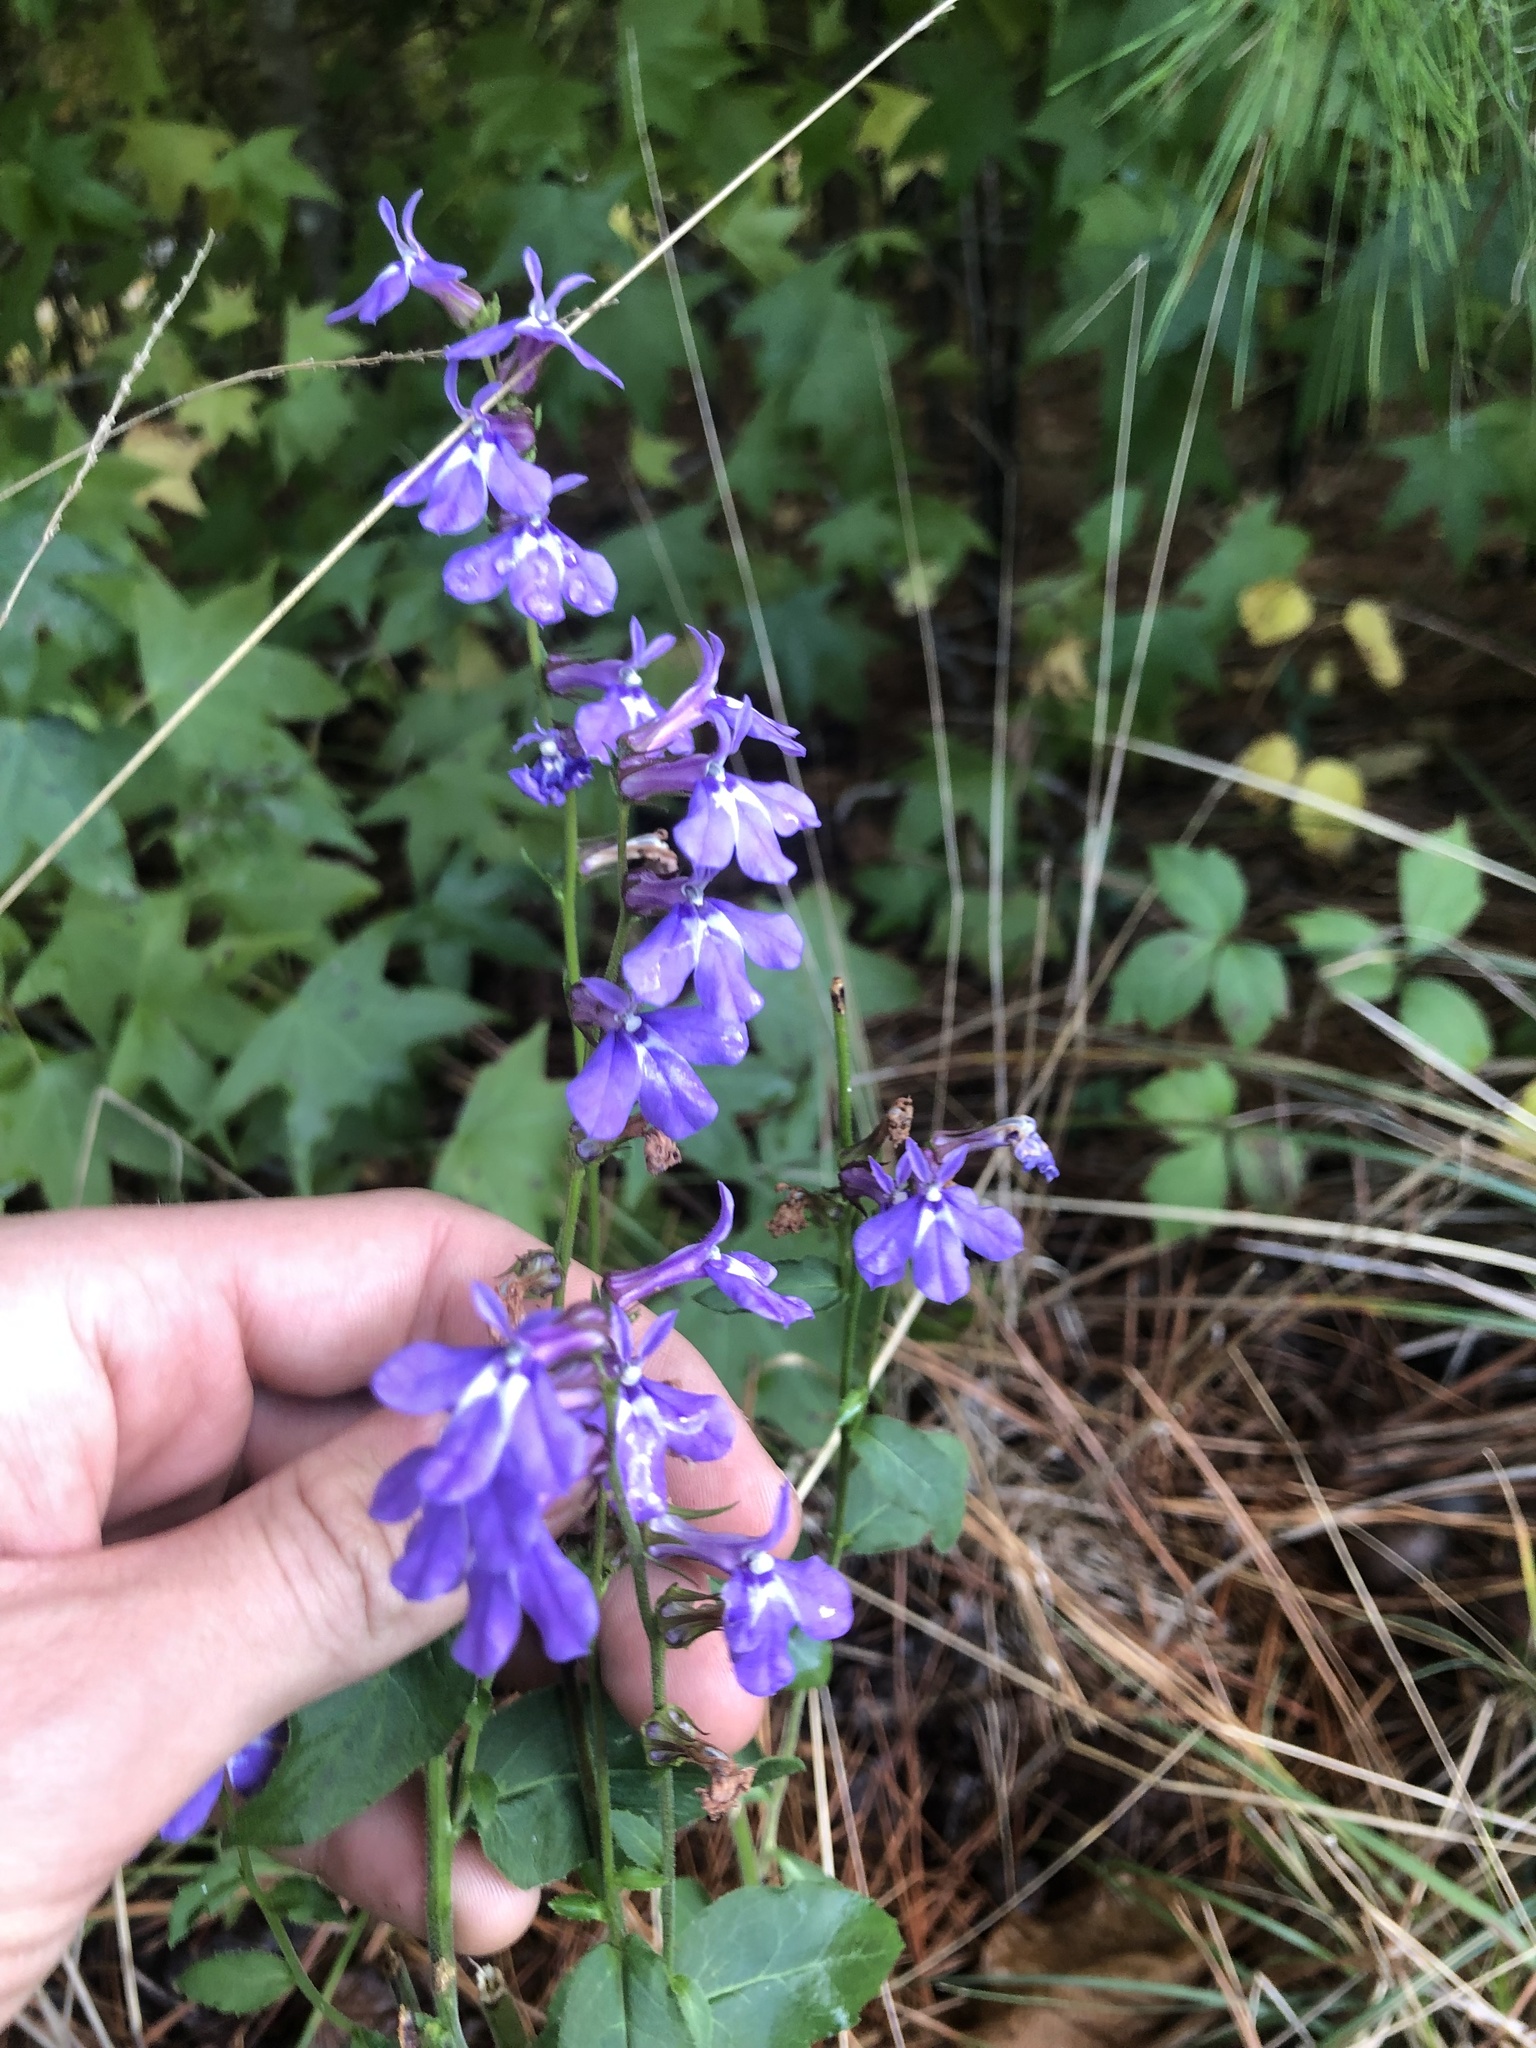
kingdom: Plantae
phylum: Tracheophyta
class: Magnoliopsida
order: Asterales
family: Campanulaceae
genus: Lobelia
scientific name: Lobelia puberula
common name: Purple dewdrop
